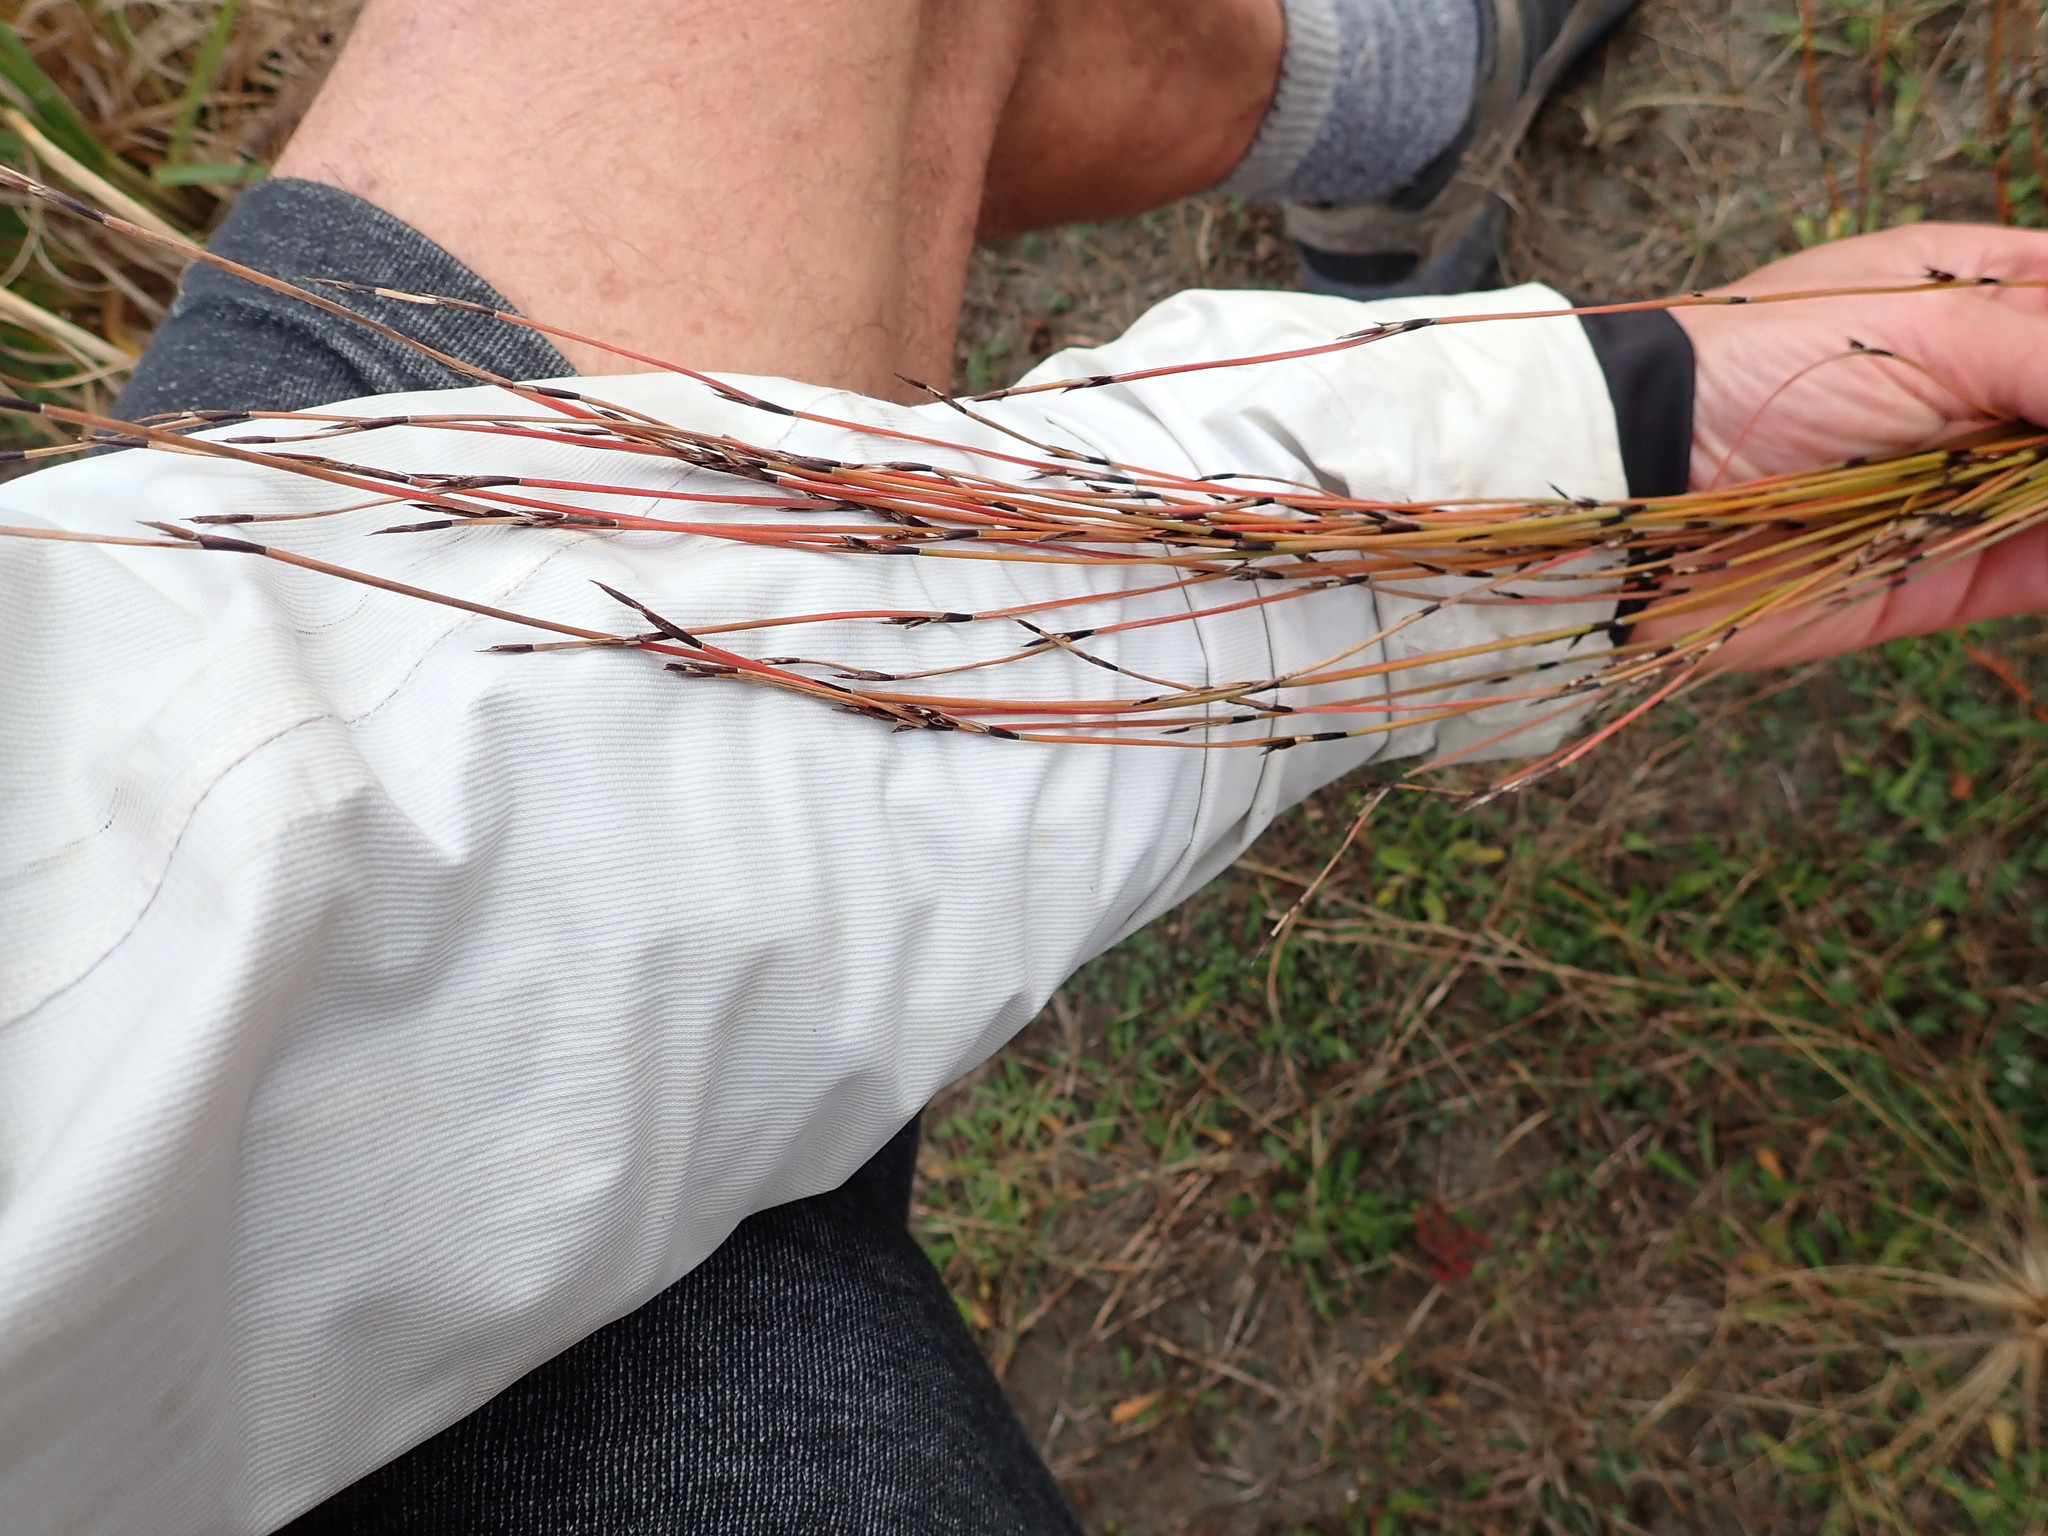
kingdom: Plantae
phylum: Tracheophyta
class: Liliopsida
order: Poales
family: Restionaceae
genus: Apodasmia
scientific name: Apodasmia similis
